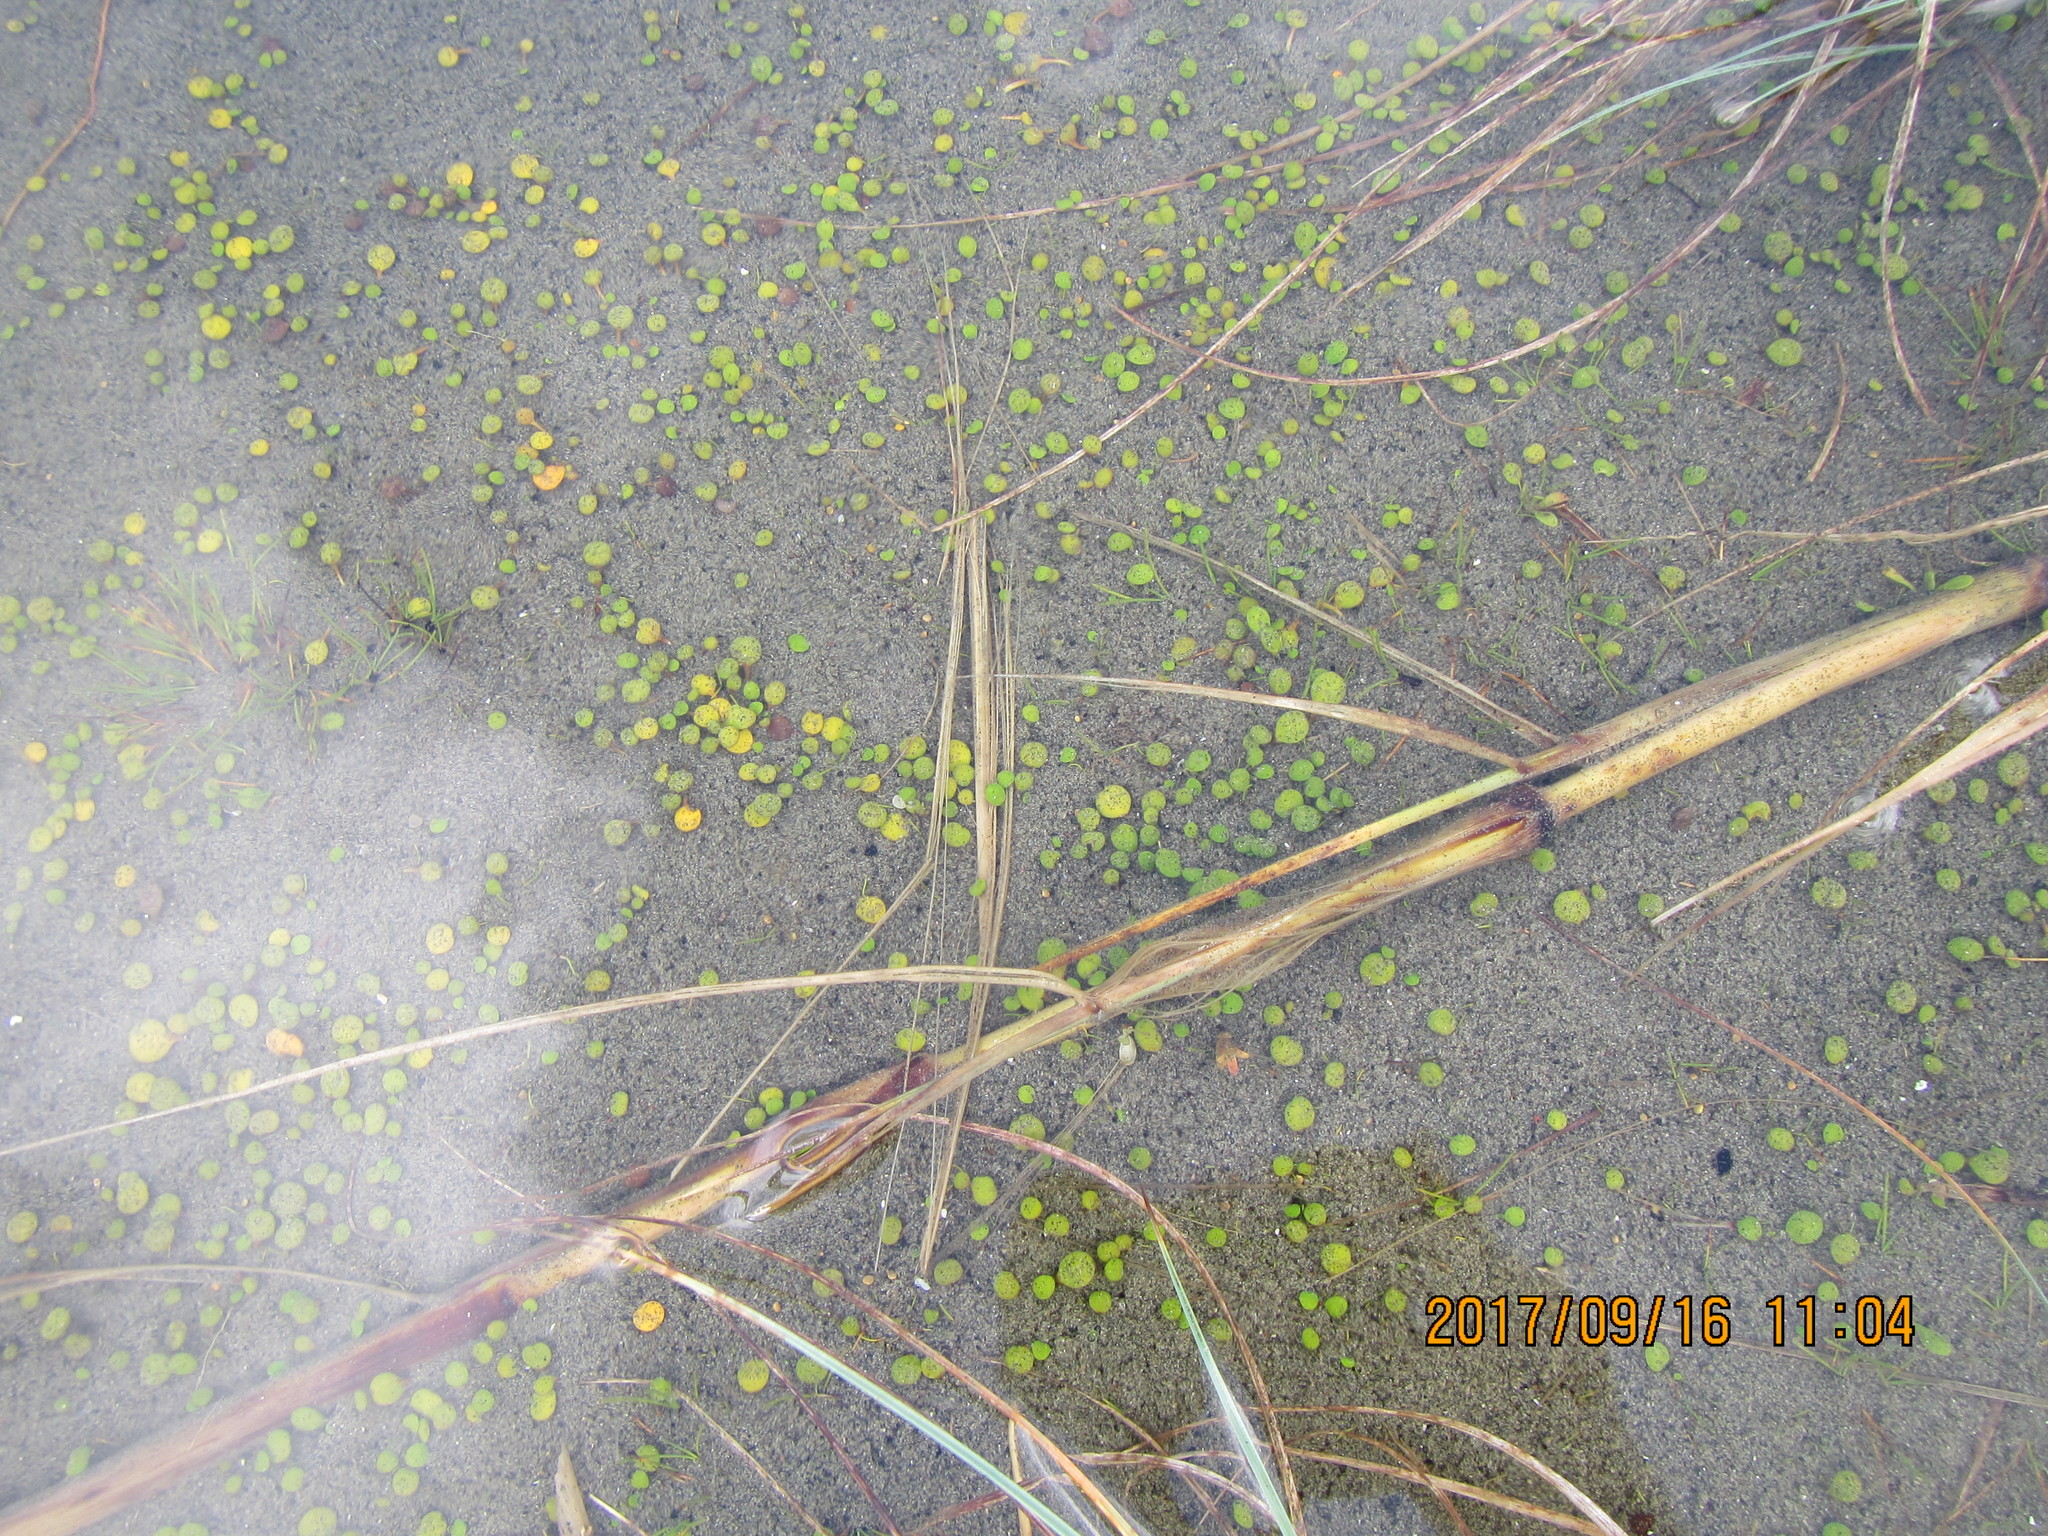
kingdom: Plantae
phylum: Tracheophyta
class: Magnoliopsida
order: Asterales
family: Goodeniaceae
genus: Goodenia
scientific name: Goodenia heenanii
